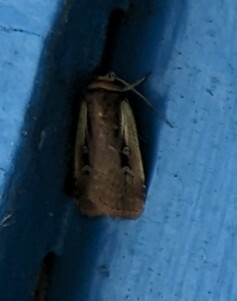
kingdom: Animalia
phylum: Arthropoda
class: Insecta
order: Lepidoptera
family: Noctuidae
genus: Ochropleura
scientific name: Ochropleura implecta
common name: Flame-shouldered dart
